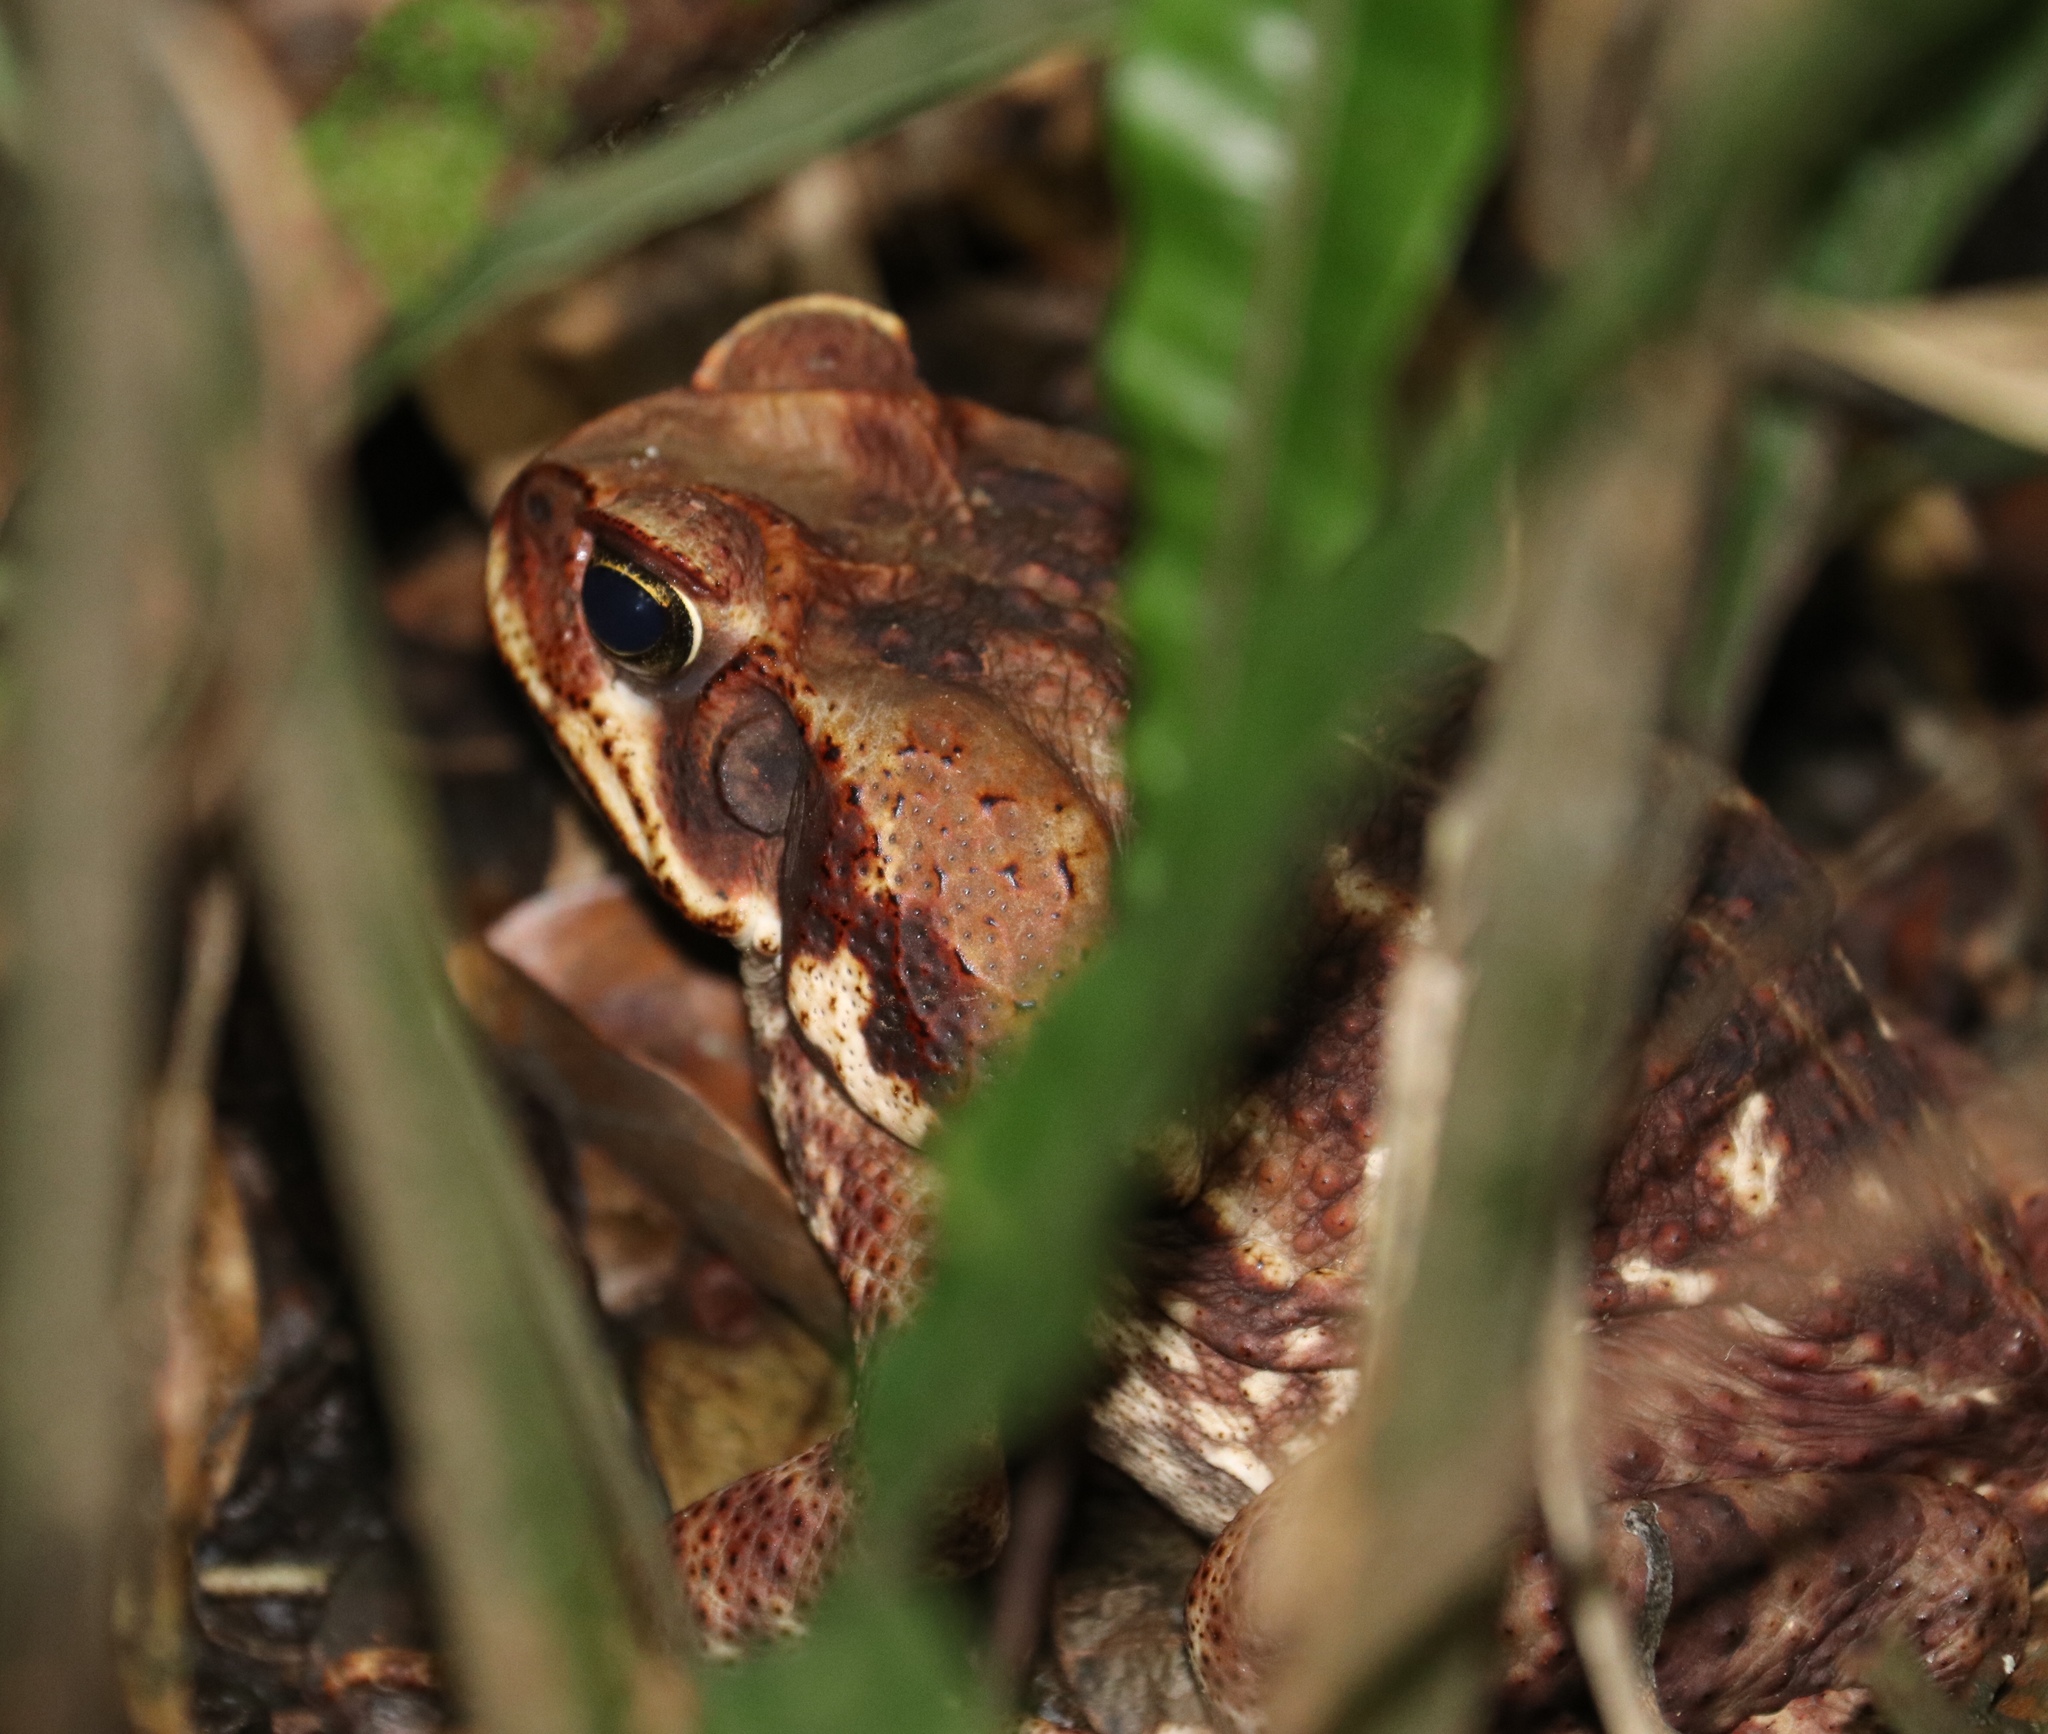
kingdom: Animalia
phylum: Chordata
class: Amphibia
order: Anura
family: Bufonidae
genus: Rhinella
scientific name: Rhinella horribilis
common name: Mesoamerican cane toad
